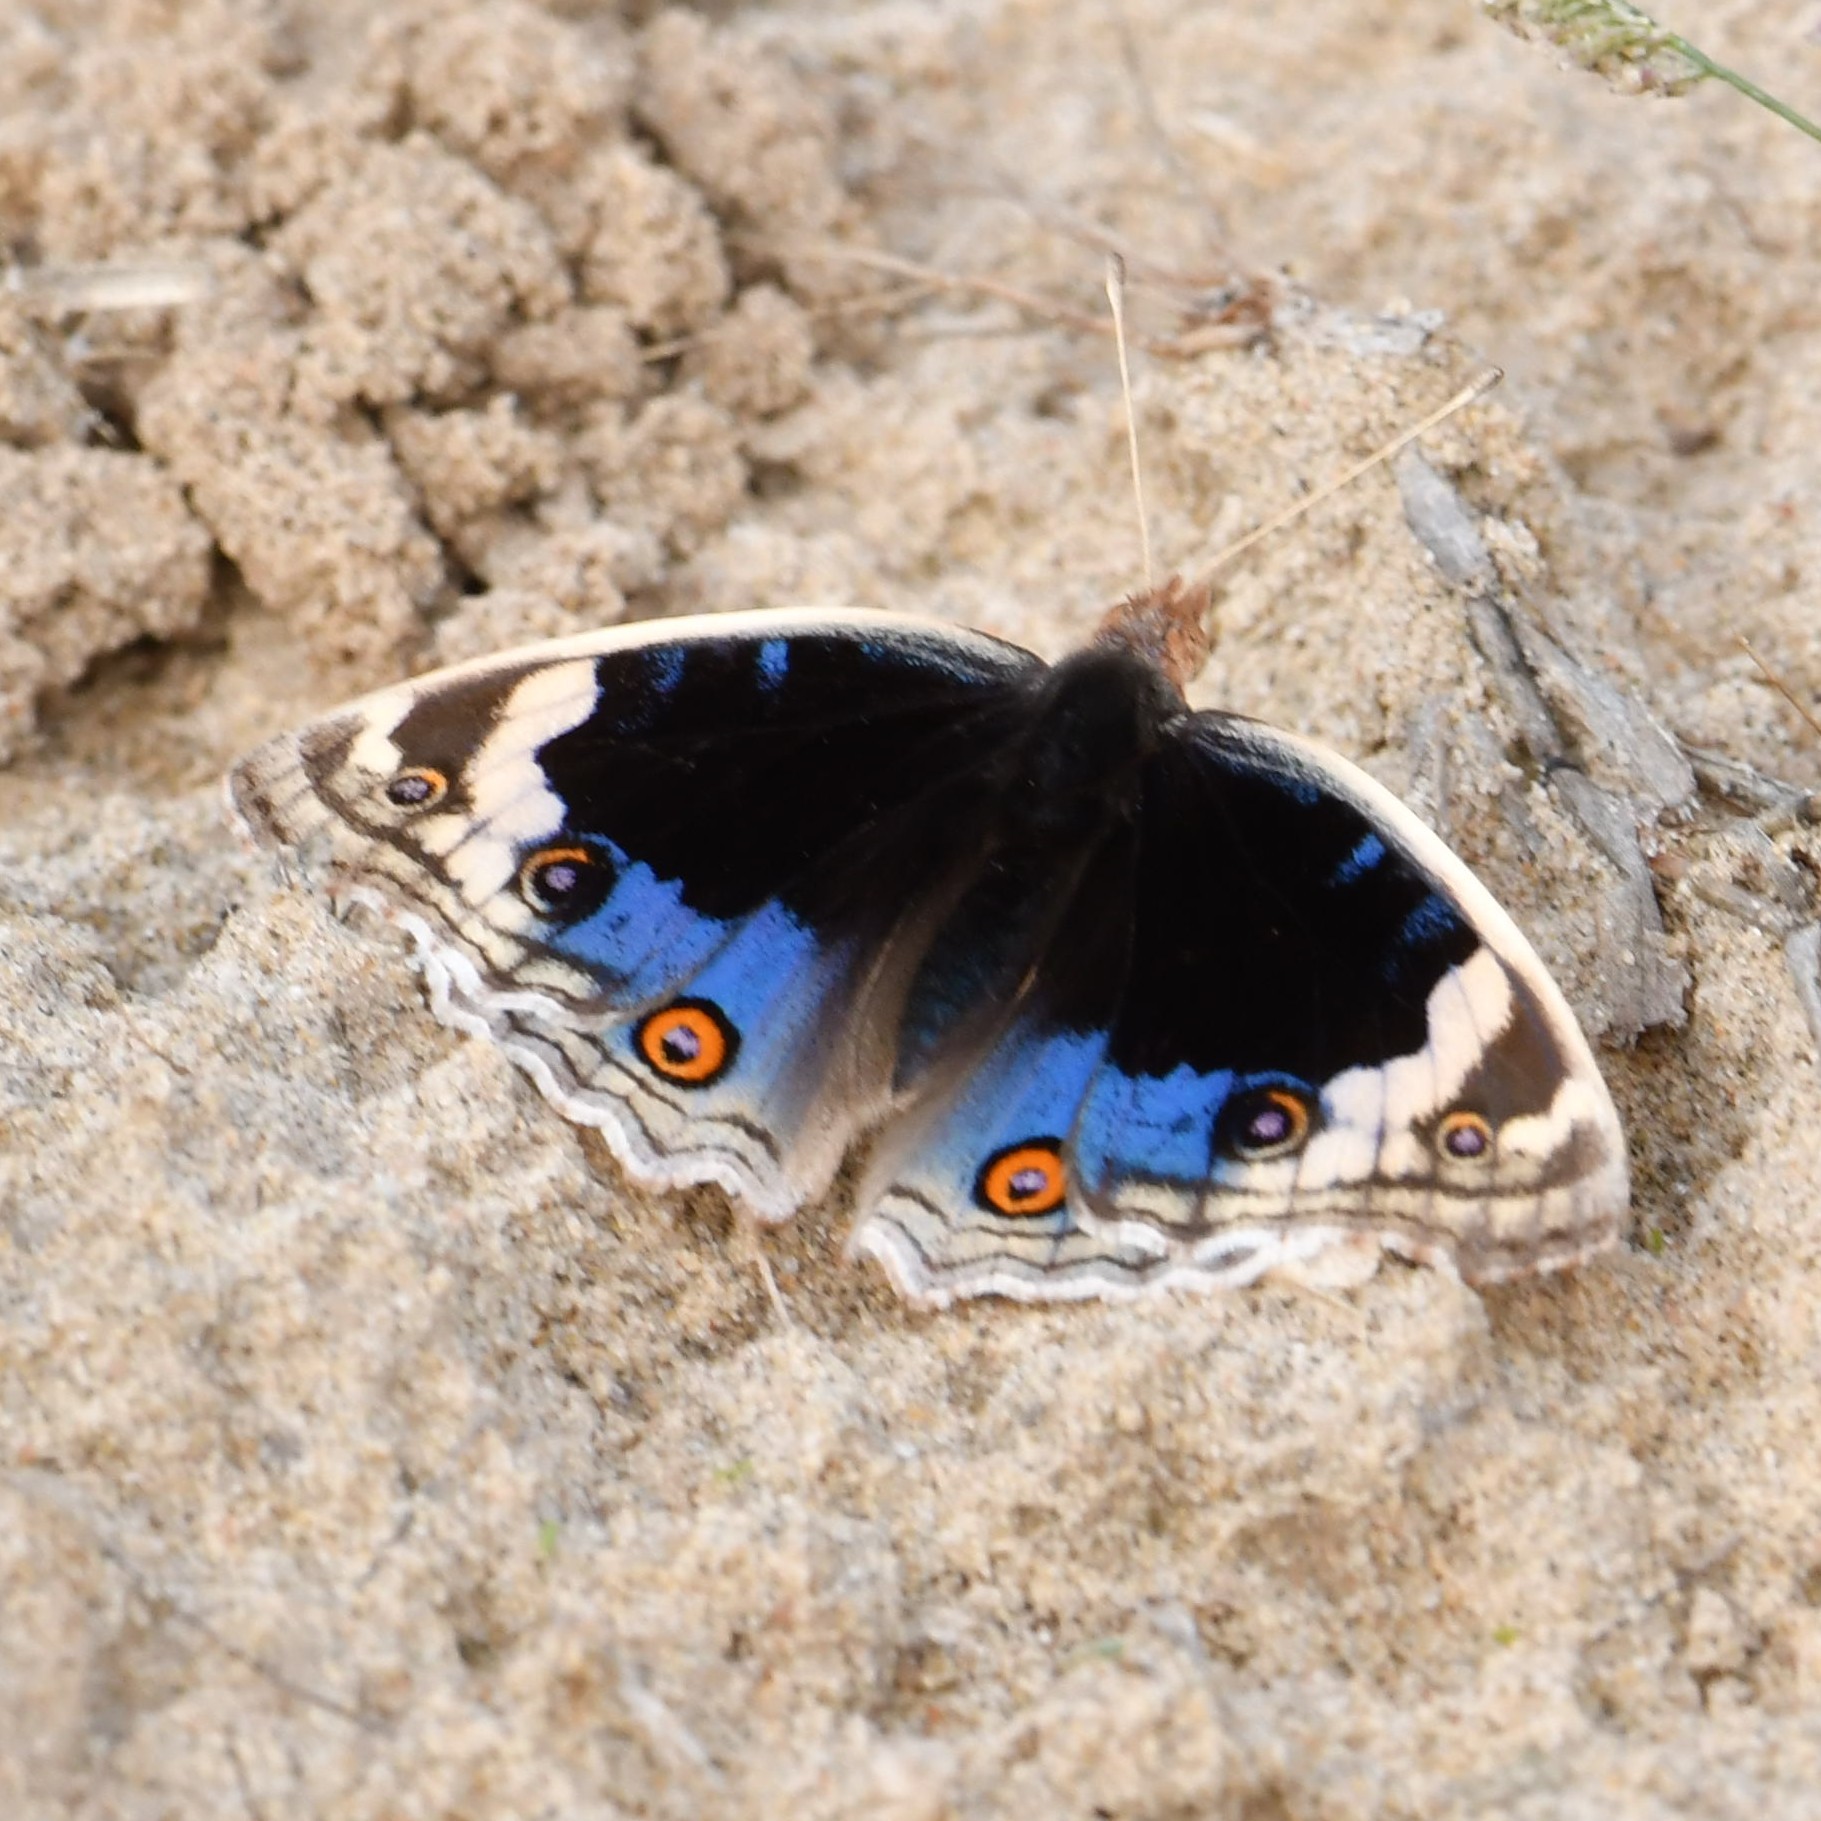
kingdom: Animalia
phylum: Arthropoda
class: Insecta
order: Lepidoptera
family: Nymphalidae
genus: Junonia
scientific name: Junonia orithya
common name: Blue pansy
